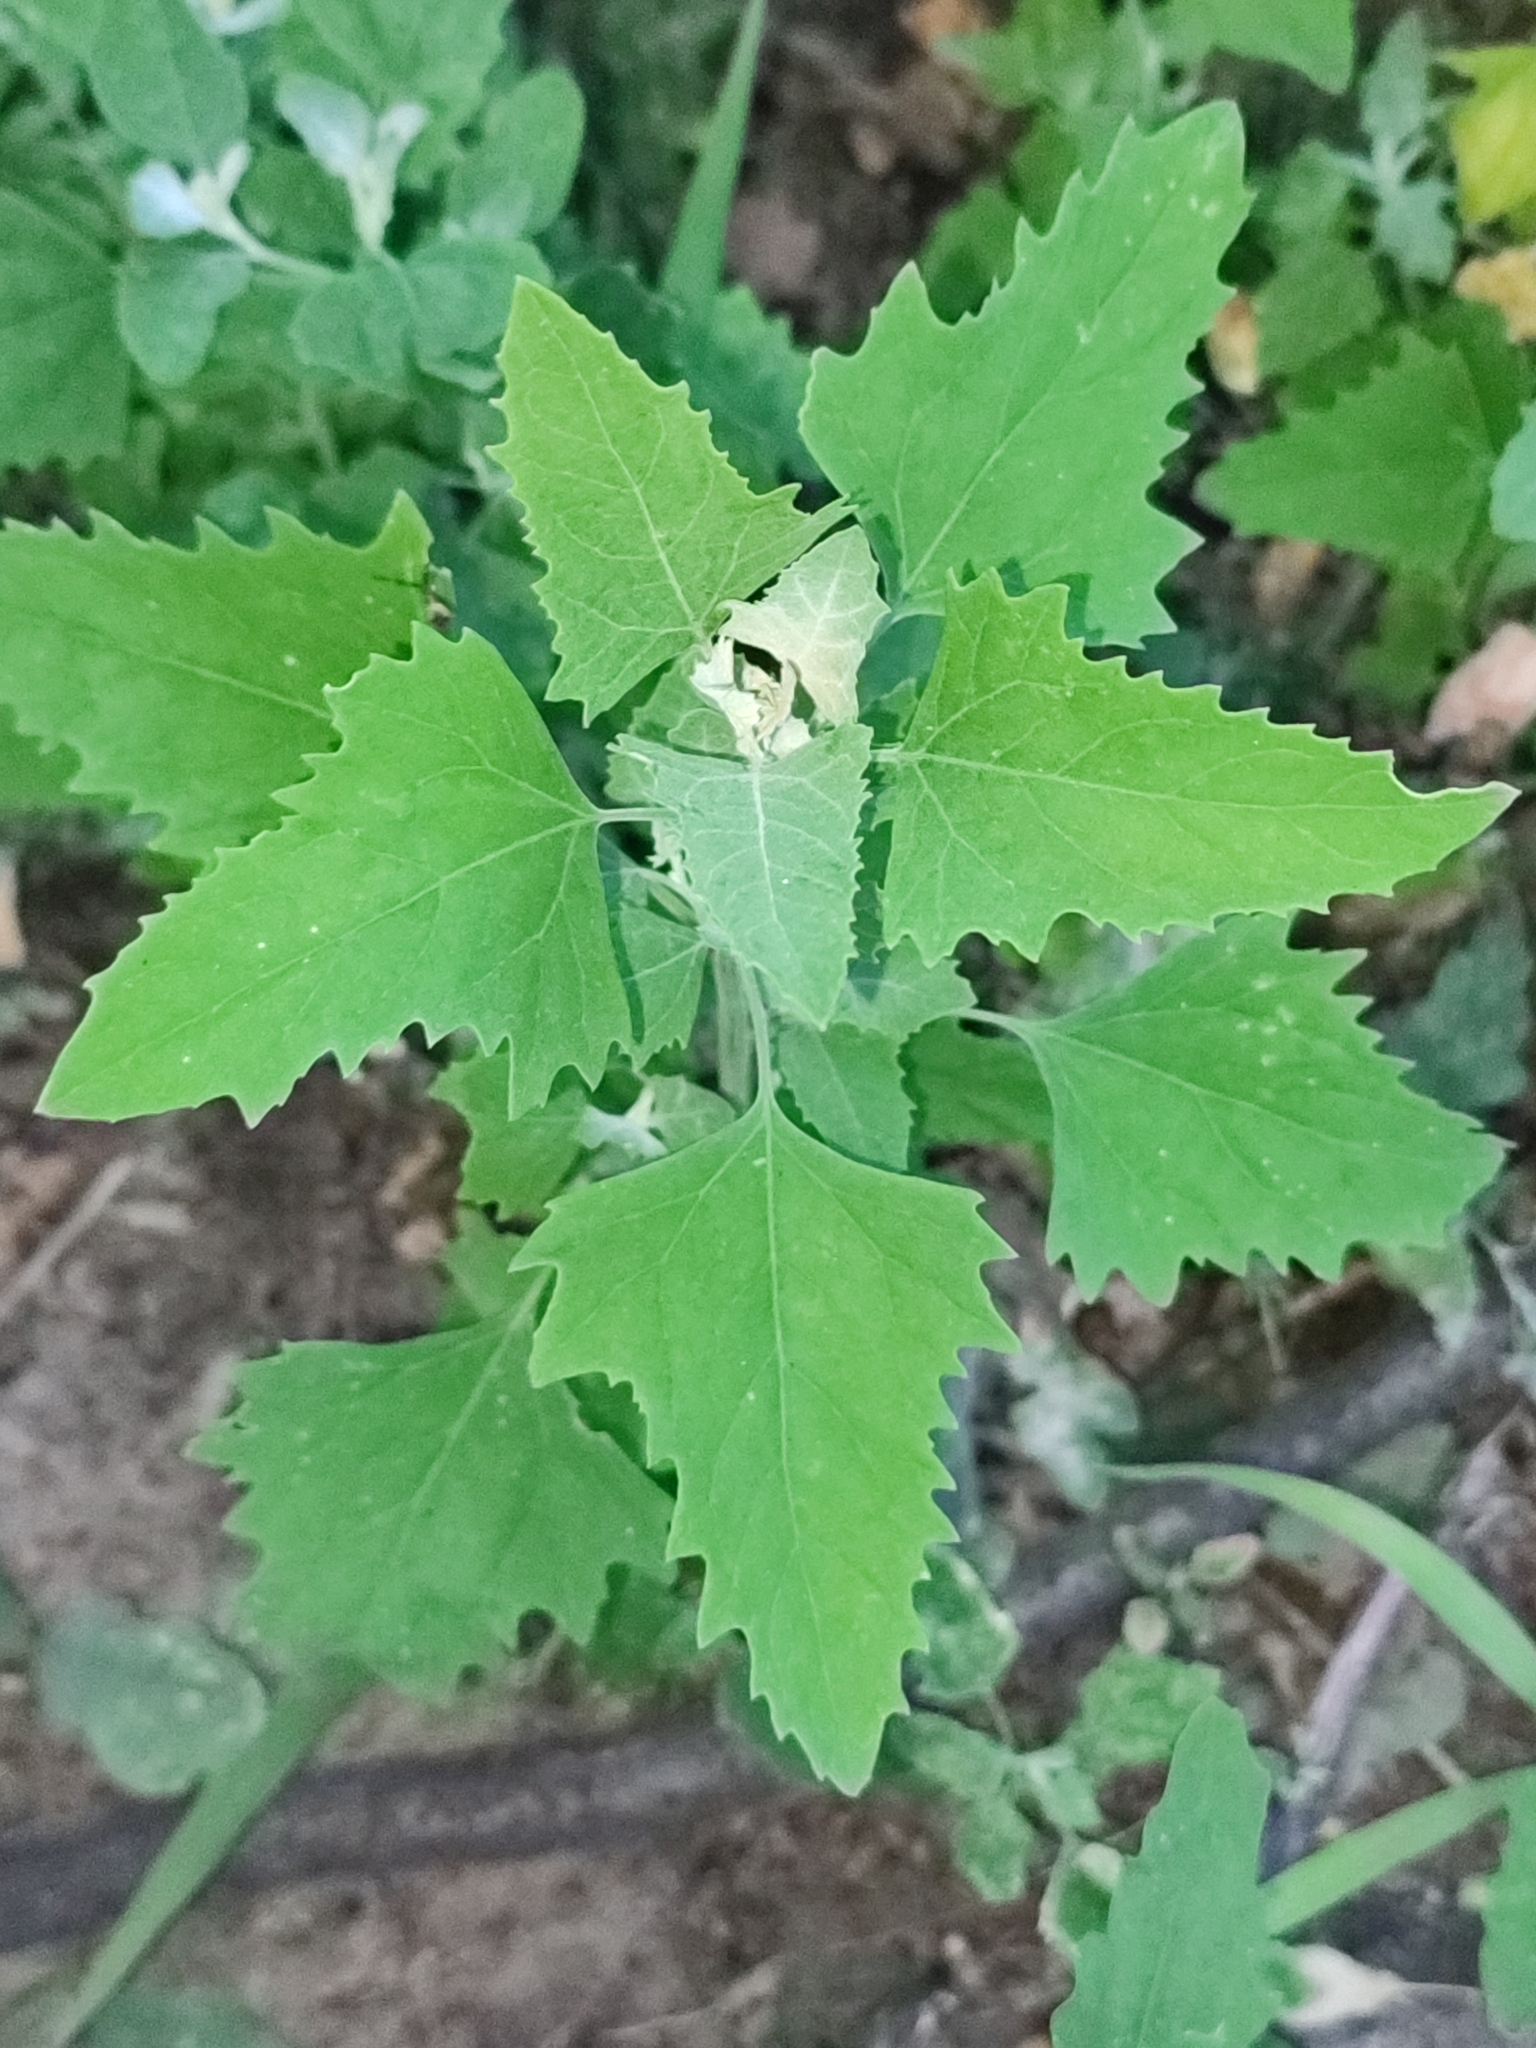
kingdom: Plantae
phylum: Tracheophyta
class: Magnoliopsida
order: Caryophyllales
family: Amaranthaceae
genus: Chenopodium
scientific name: Chenopodium album
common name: Fat-hen
